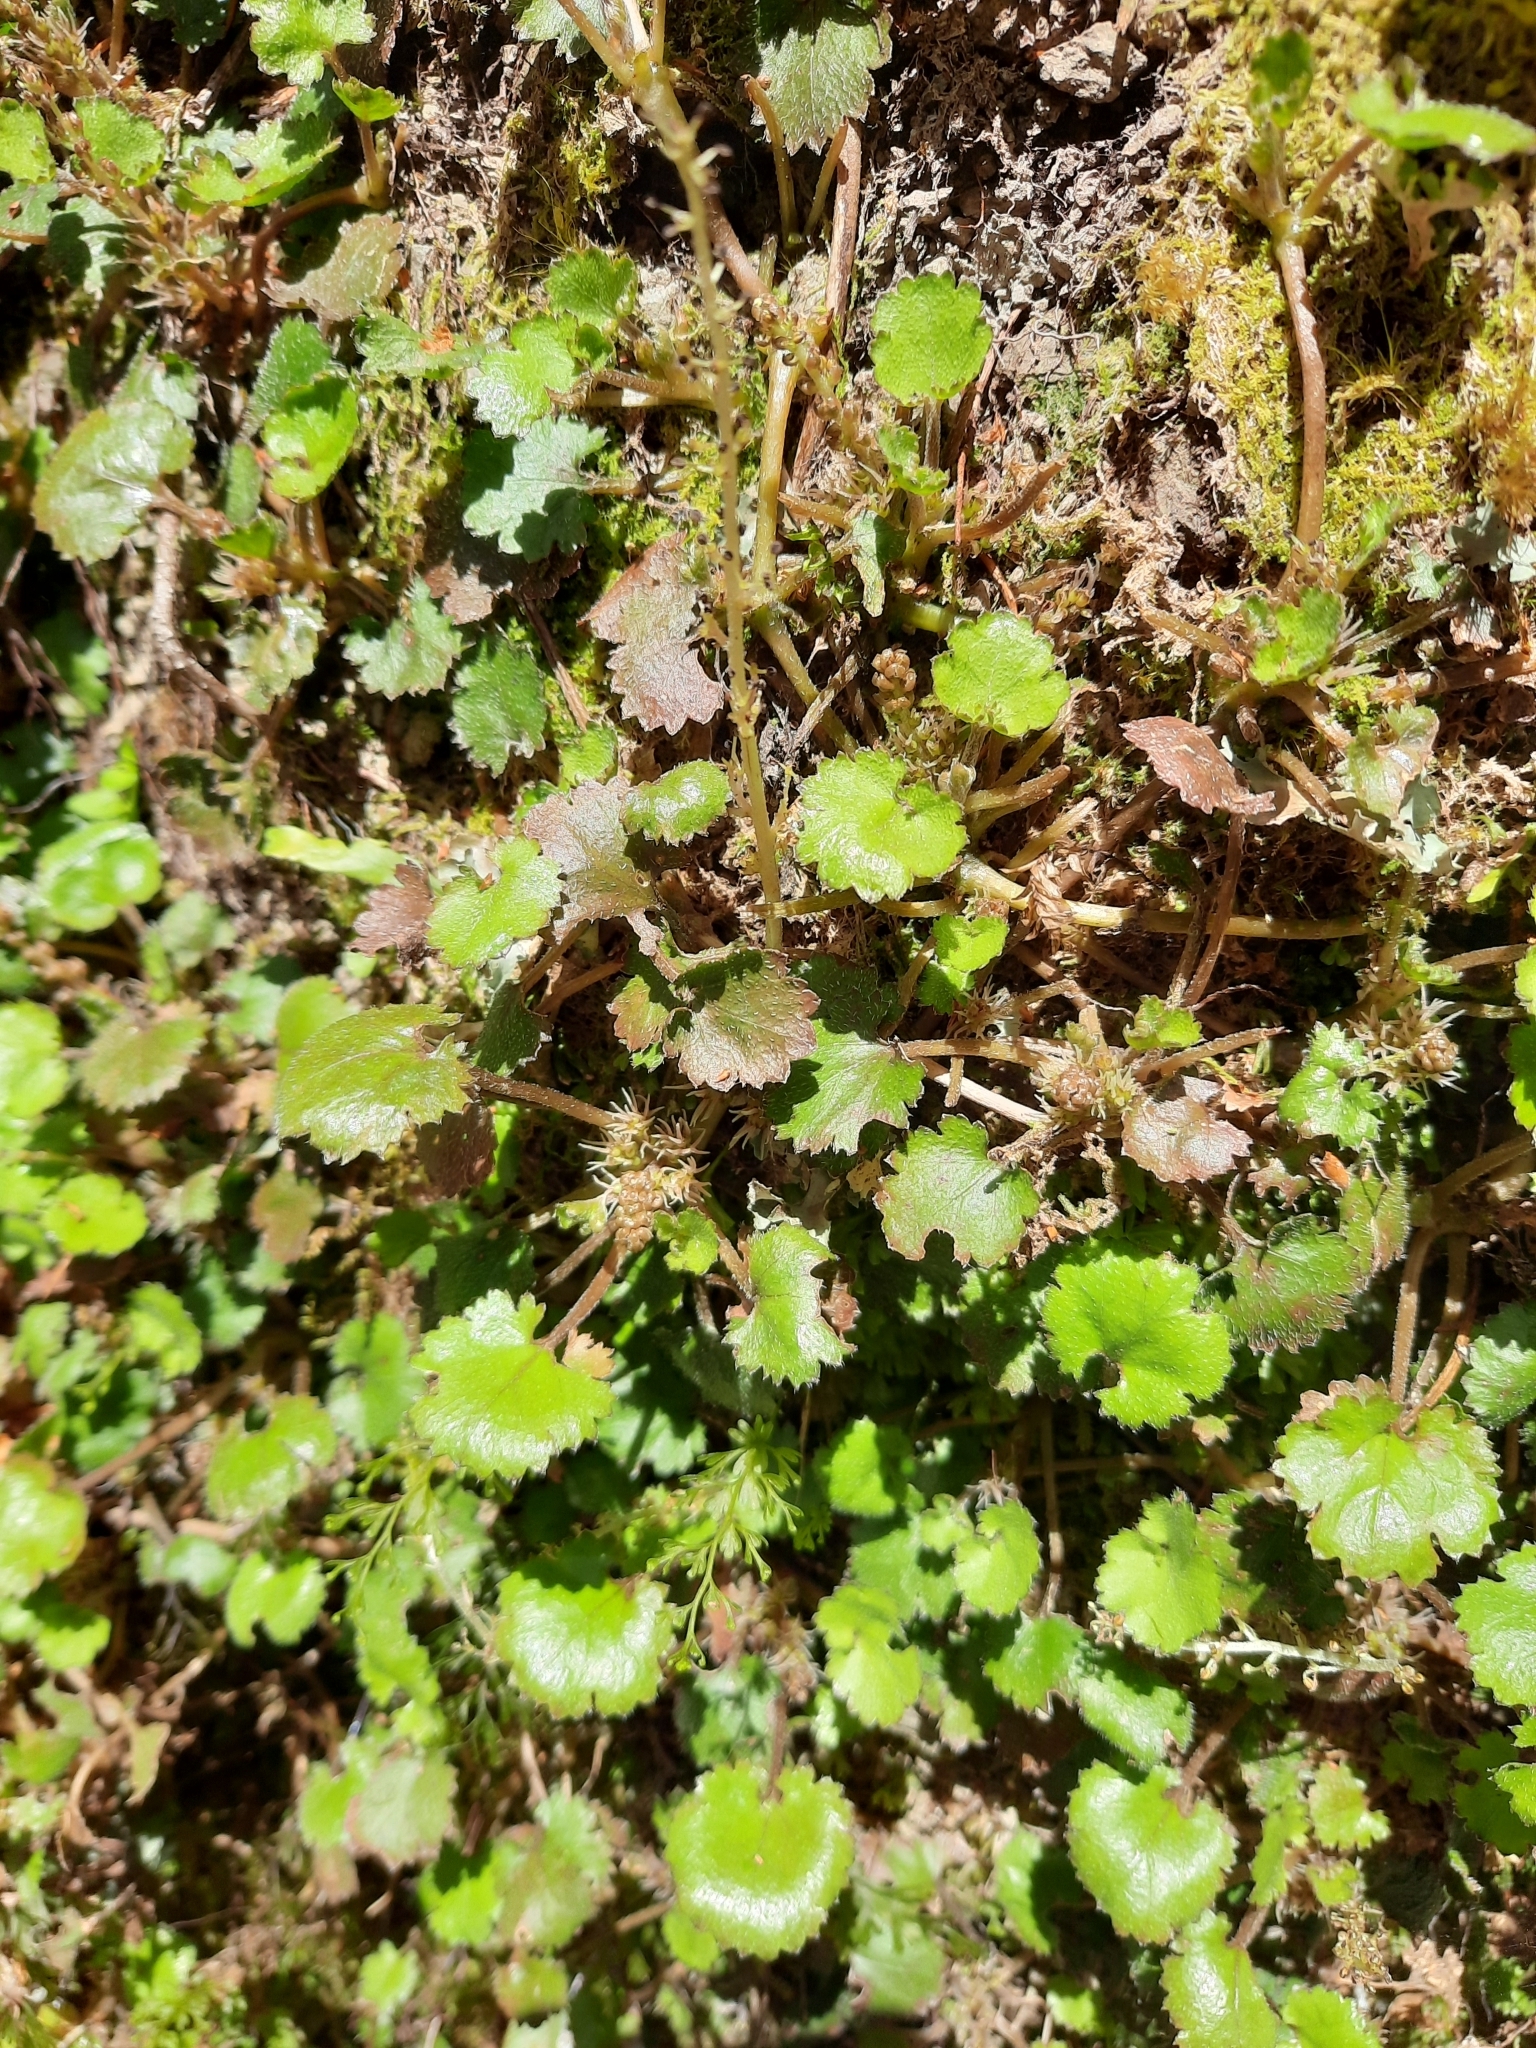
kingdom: Plantae
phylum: Tracheophyta
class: Magnoliopsida
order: Gunnerales
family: Gunneraceae
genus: Gunnera
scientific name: Gunnera monoica
